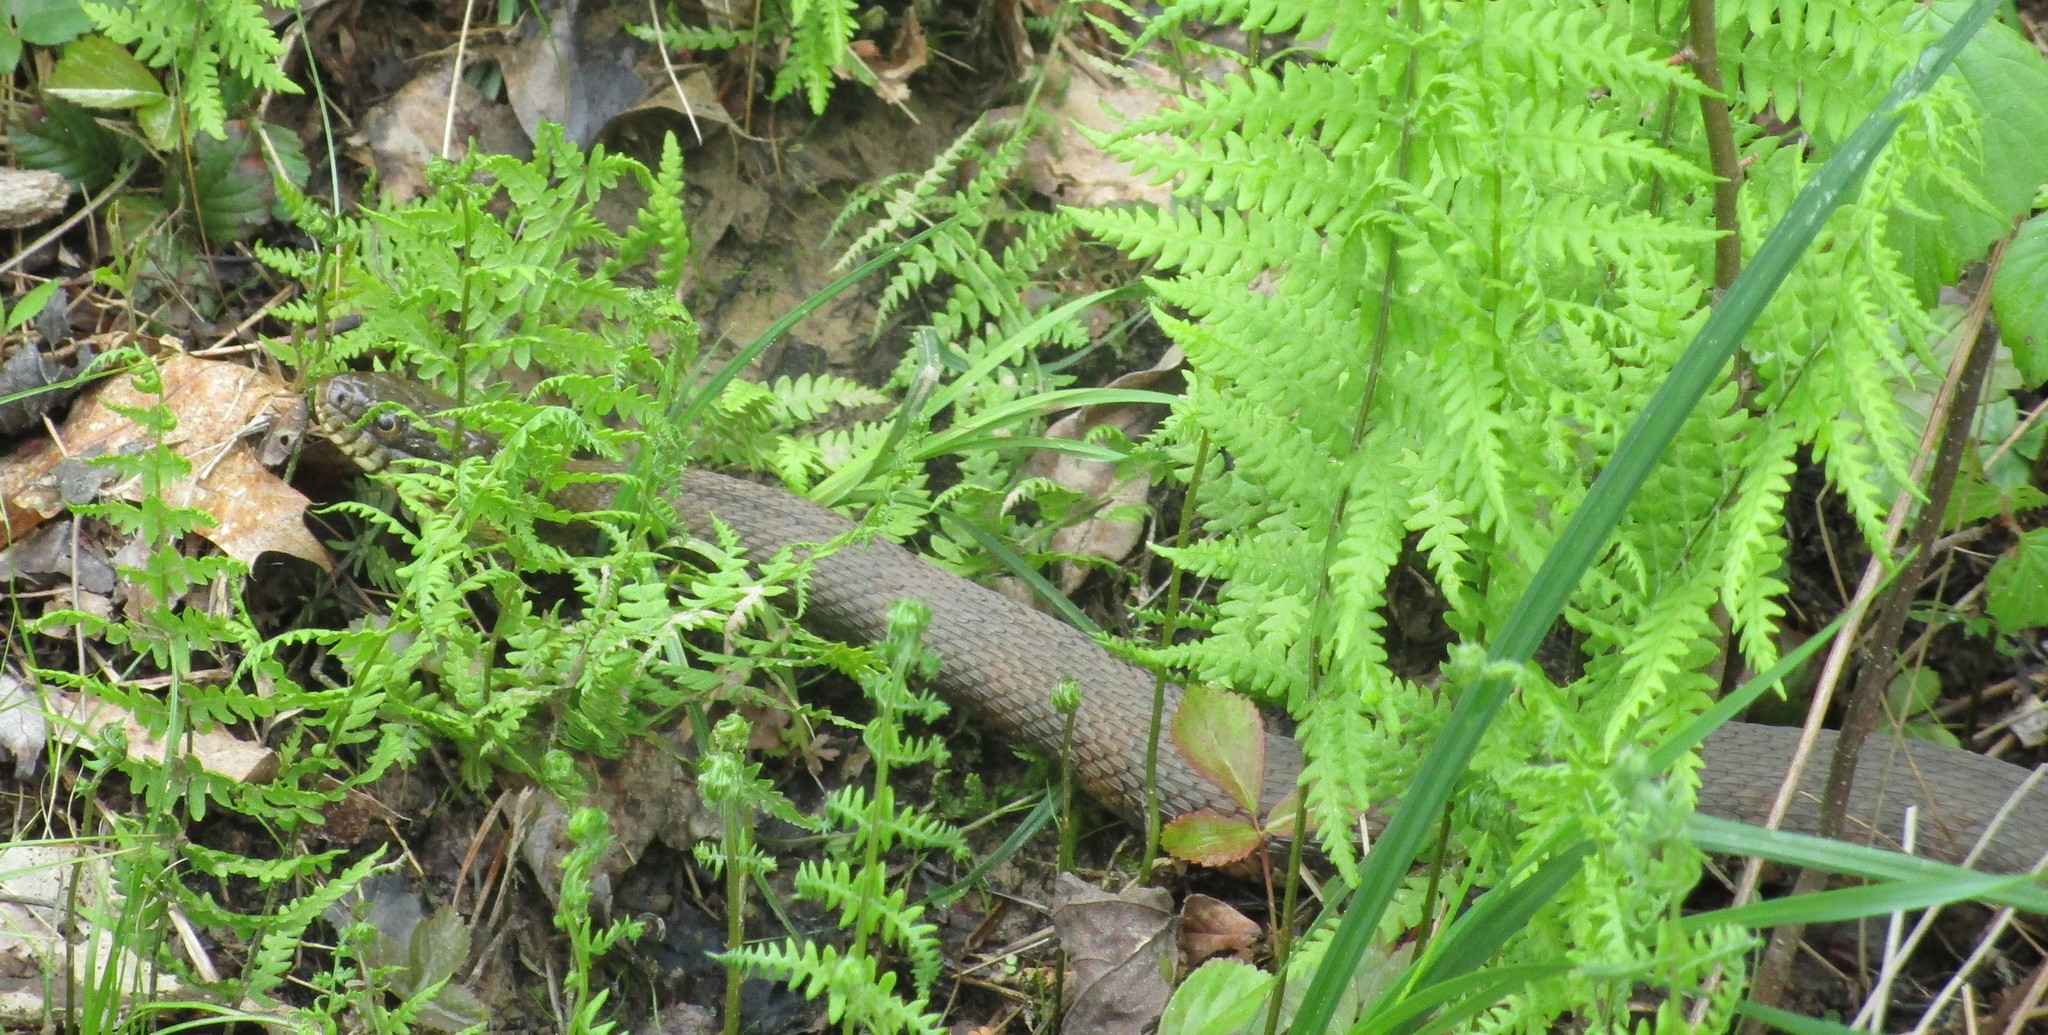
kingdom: Animalia
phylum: Chordata
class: Squamata
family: Colubridae
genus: Nerodia
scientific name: Nerodia sipedon
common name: Northern water snake
